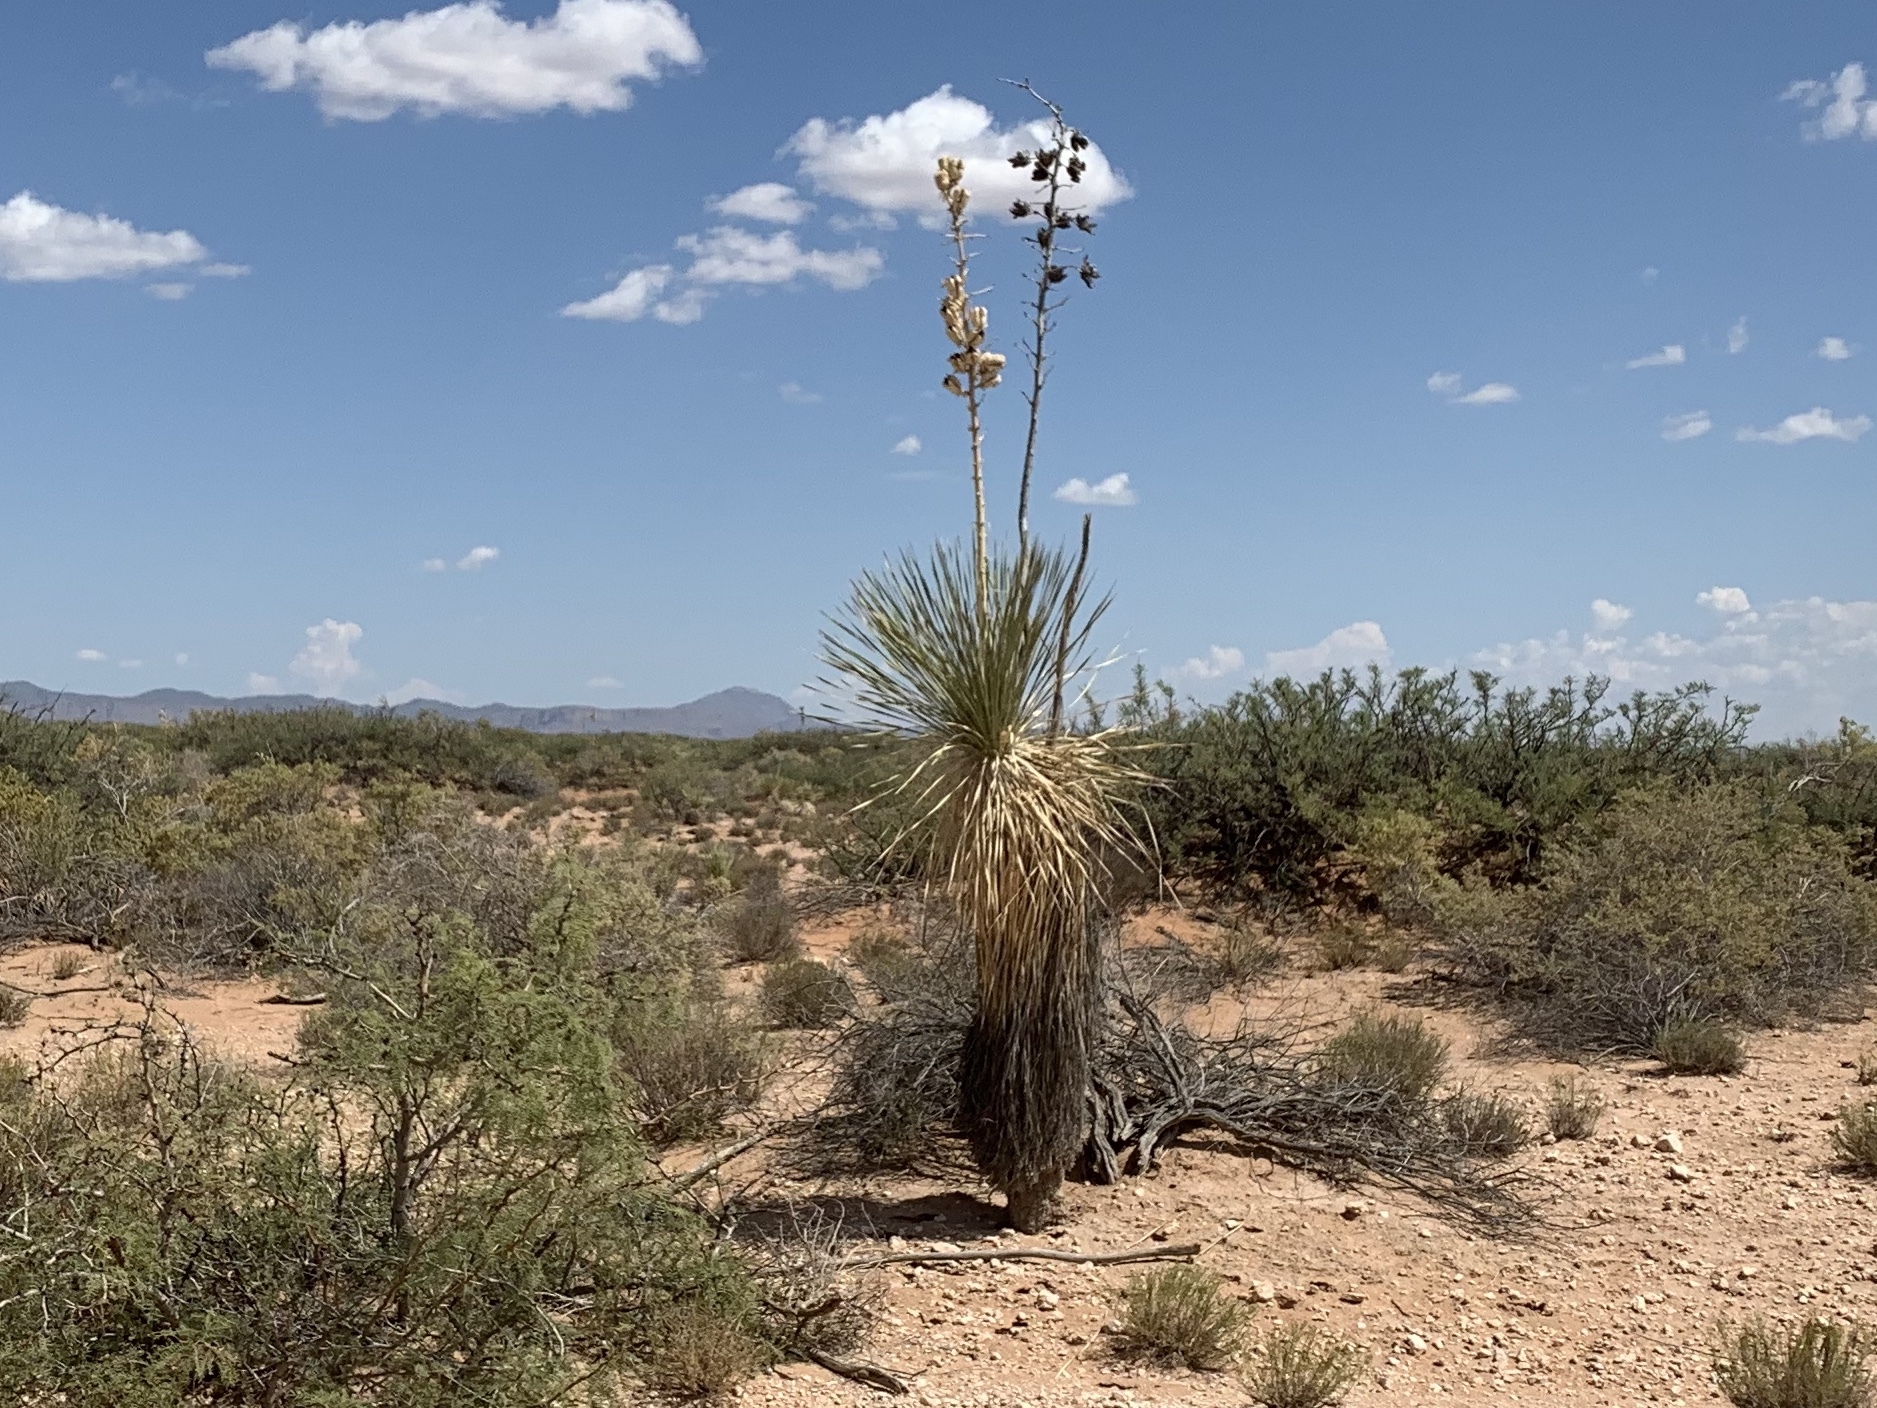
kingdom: Plantae
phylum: Tracheophyta
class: Liliopsida
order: Asparagales
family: Asparagaceae
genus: Yucca
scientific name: Yucca elata
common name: Palmella
